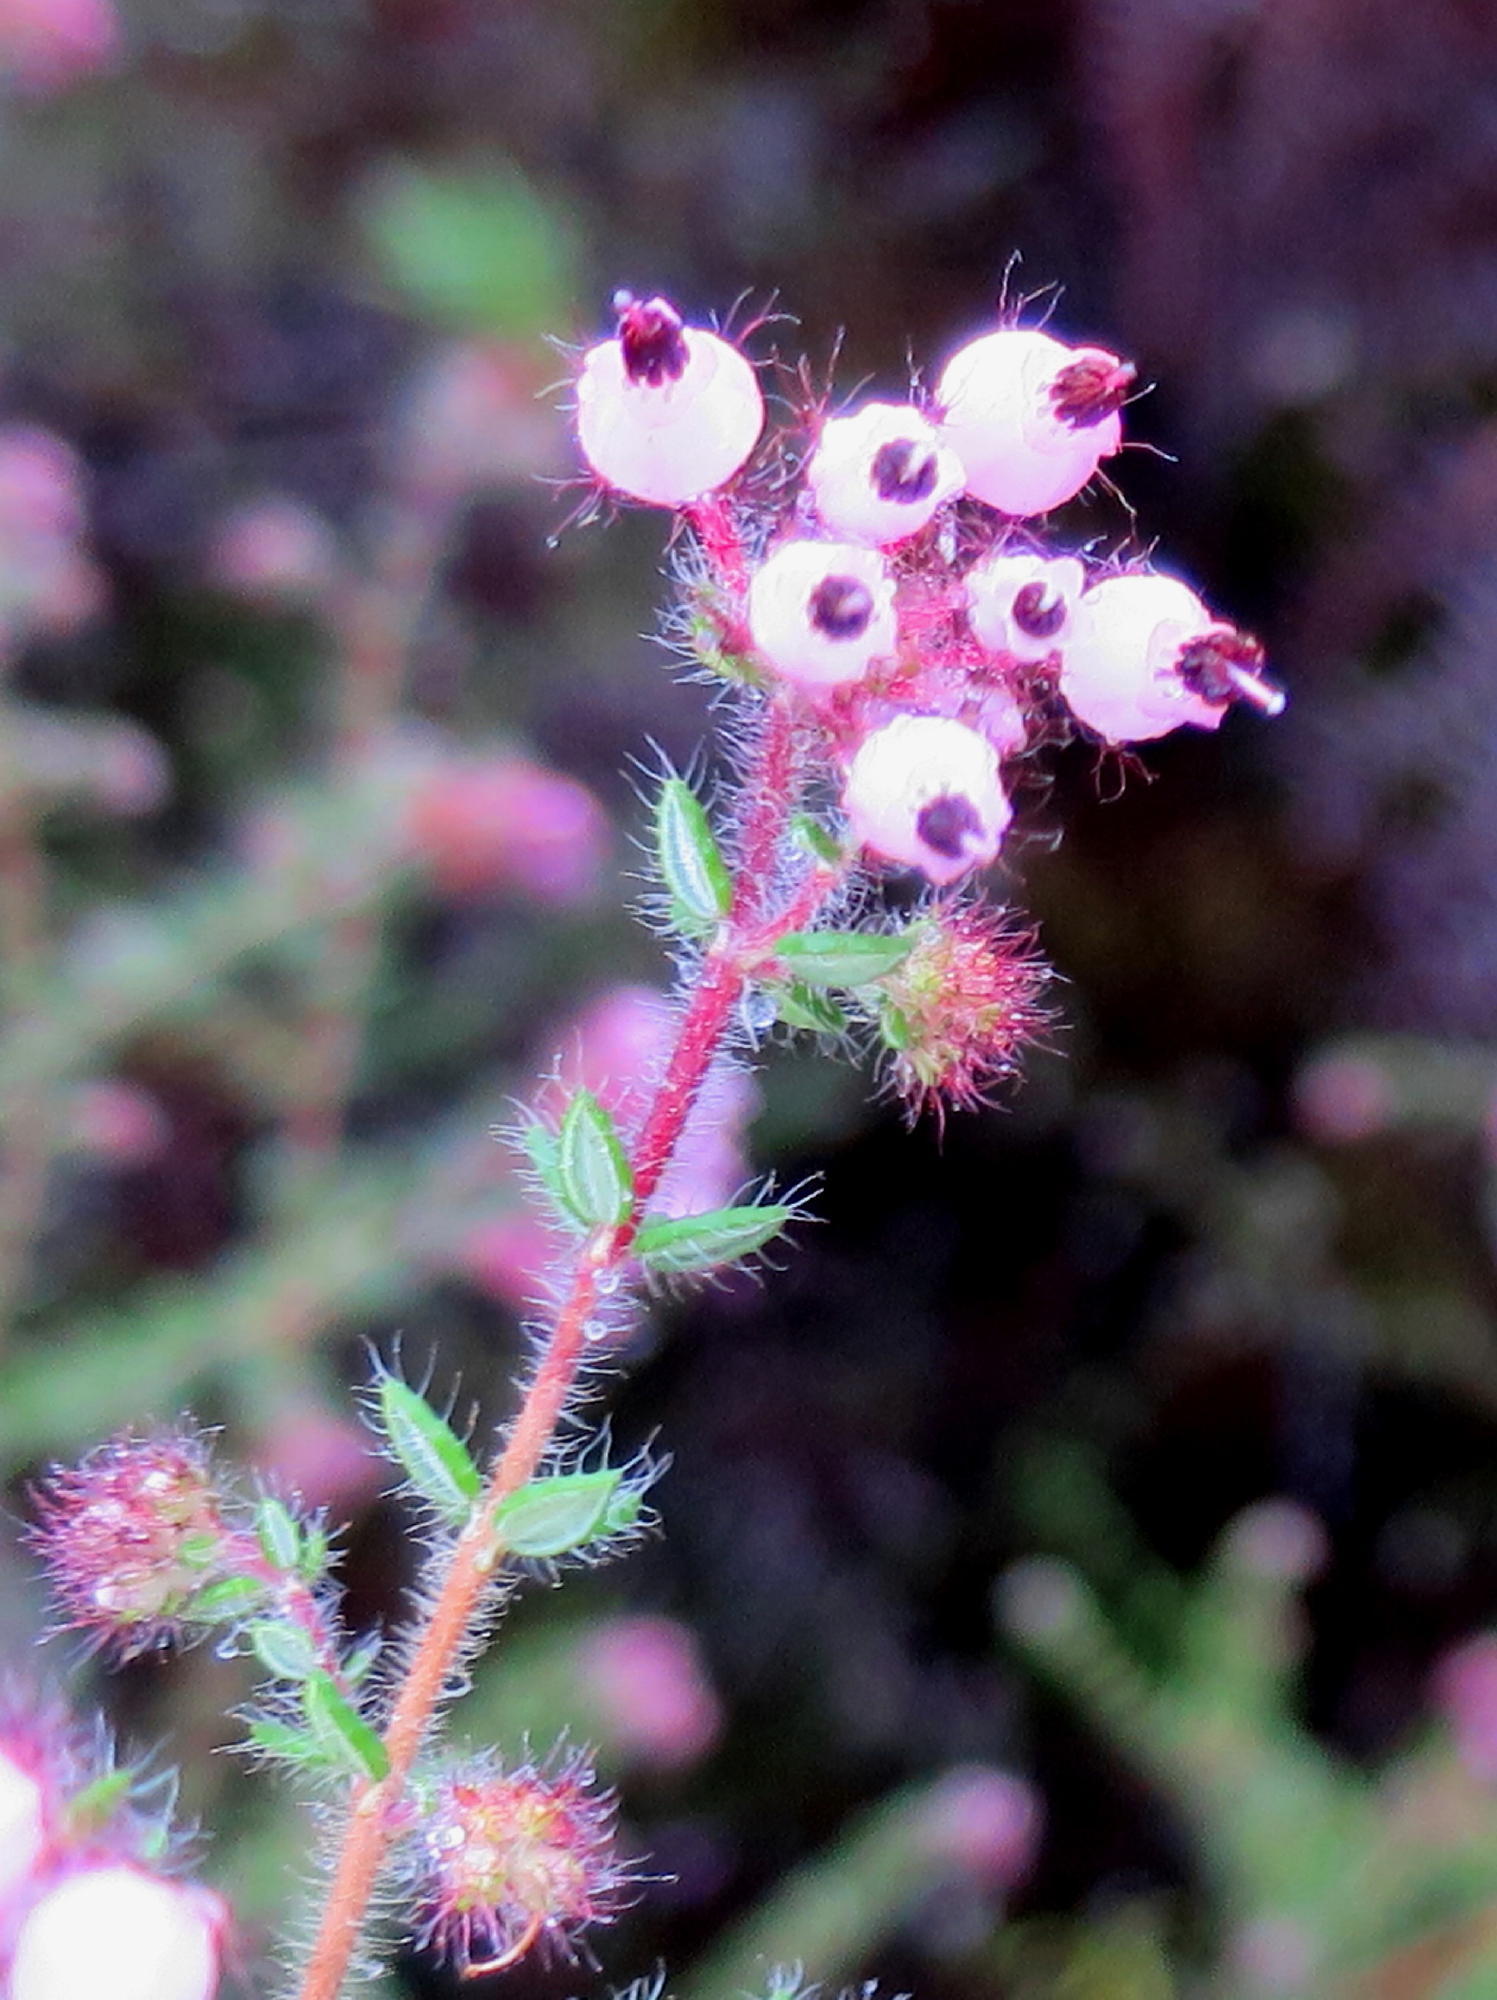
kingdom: Plantae
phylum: Tracheophyta
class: Magnoliopsida
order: Ericales
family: Ericaceae
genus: Erica
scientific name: Erica aneimena
